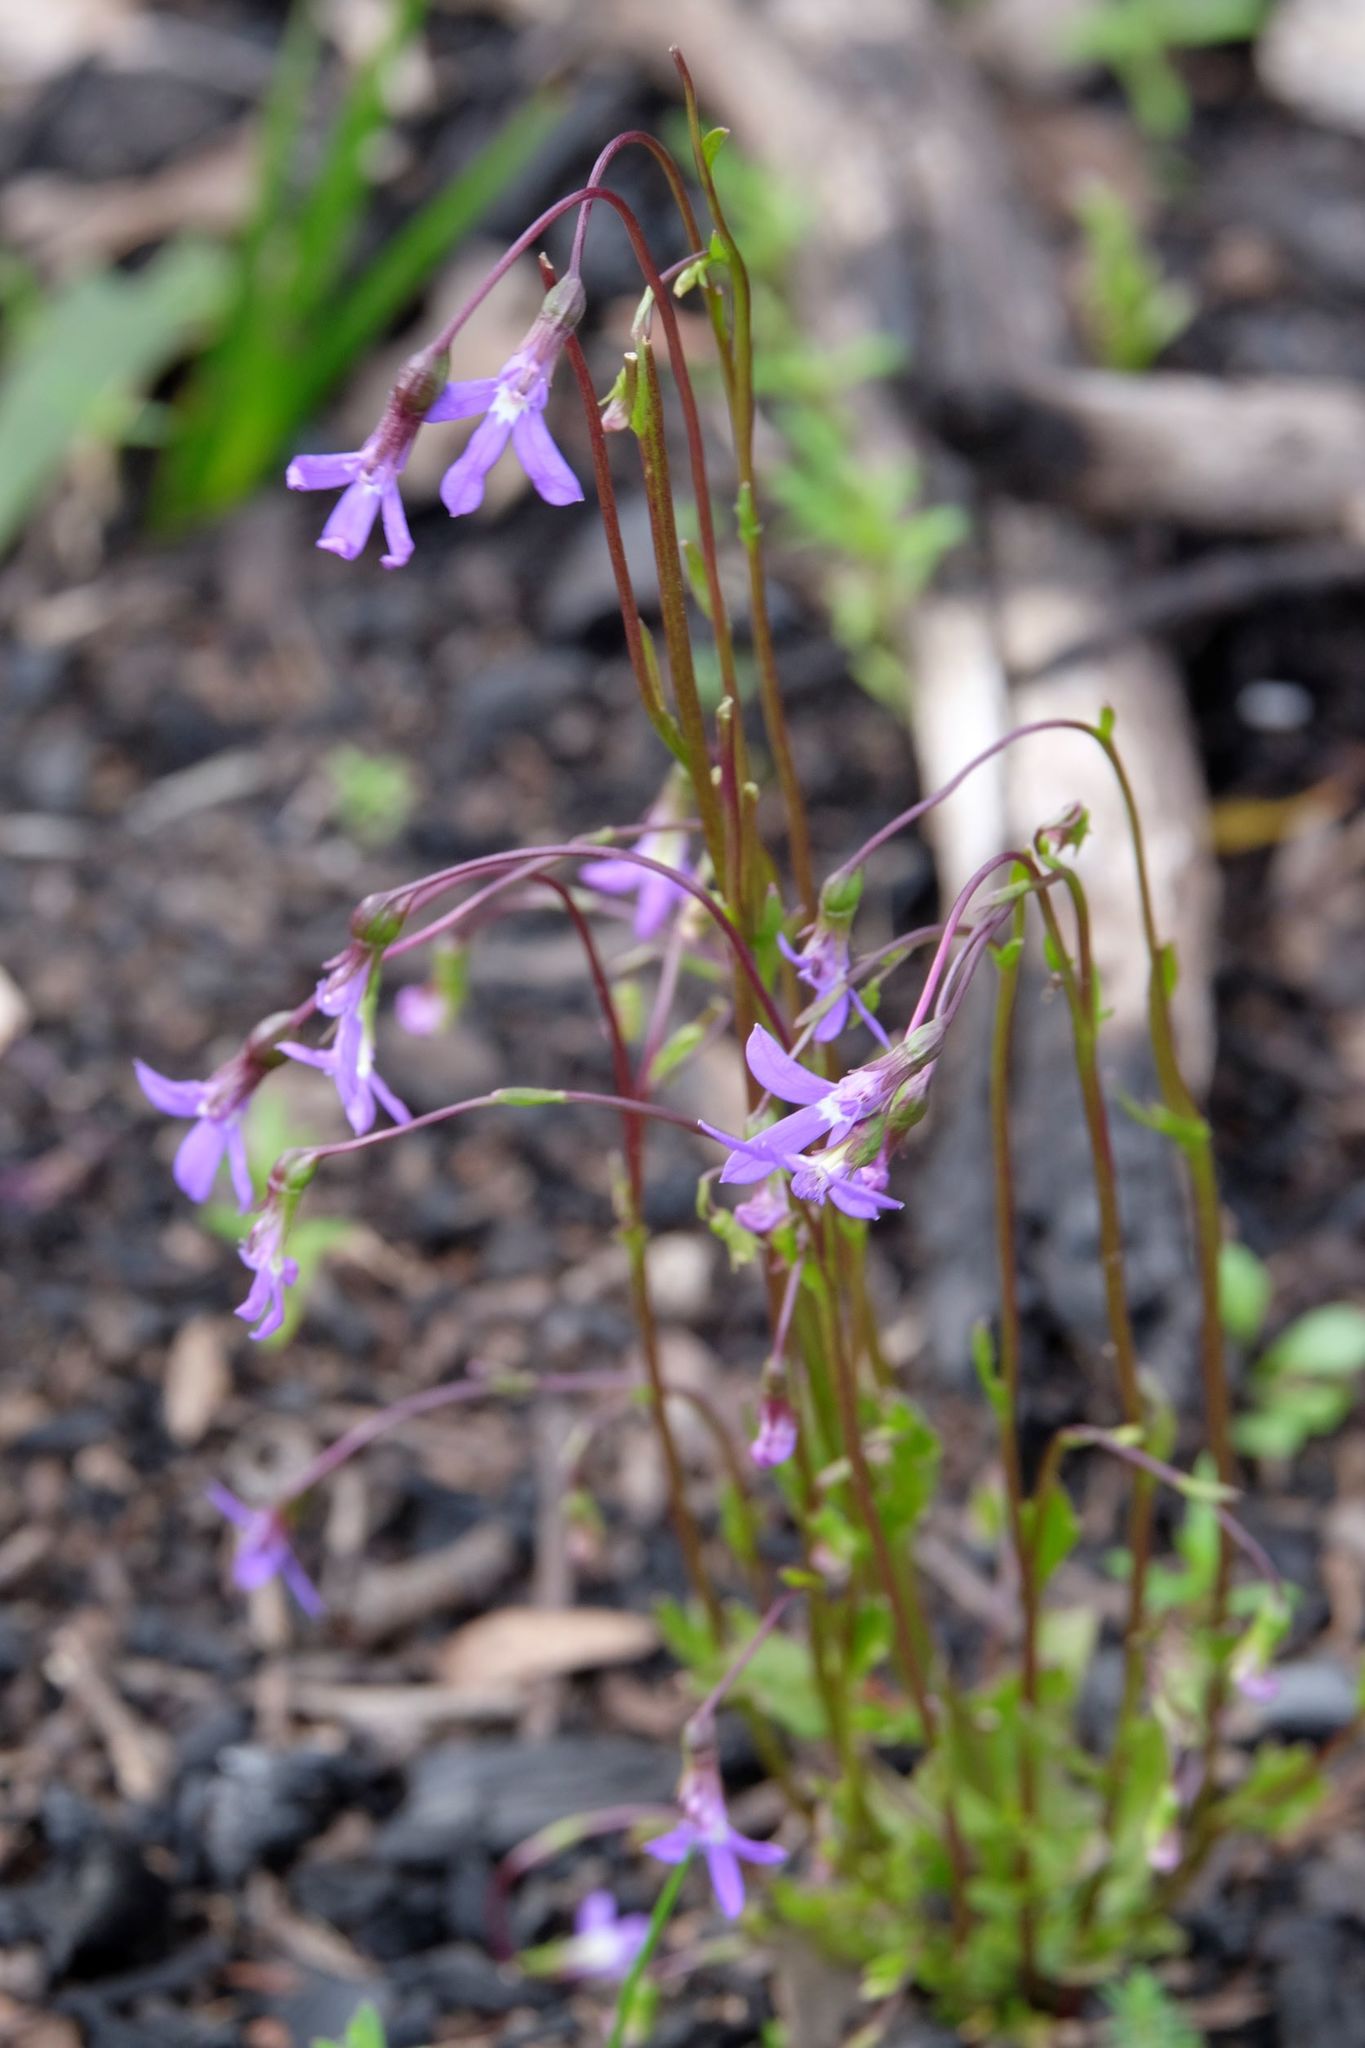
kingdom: Plantae
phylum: Tracheophyta
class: Magnoliopsida
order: Asterales
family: Campanulaceae
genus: Lobelia
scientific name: Lobelia rhombifolia
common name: Tufted lobelia
